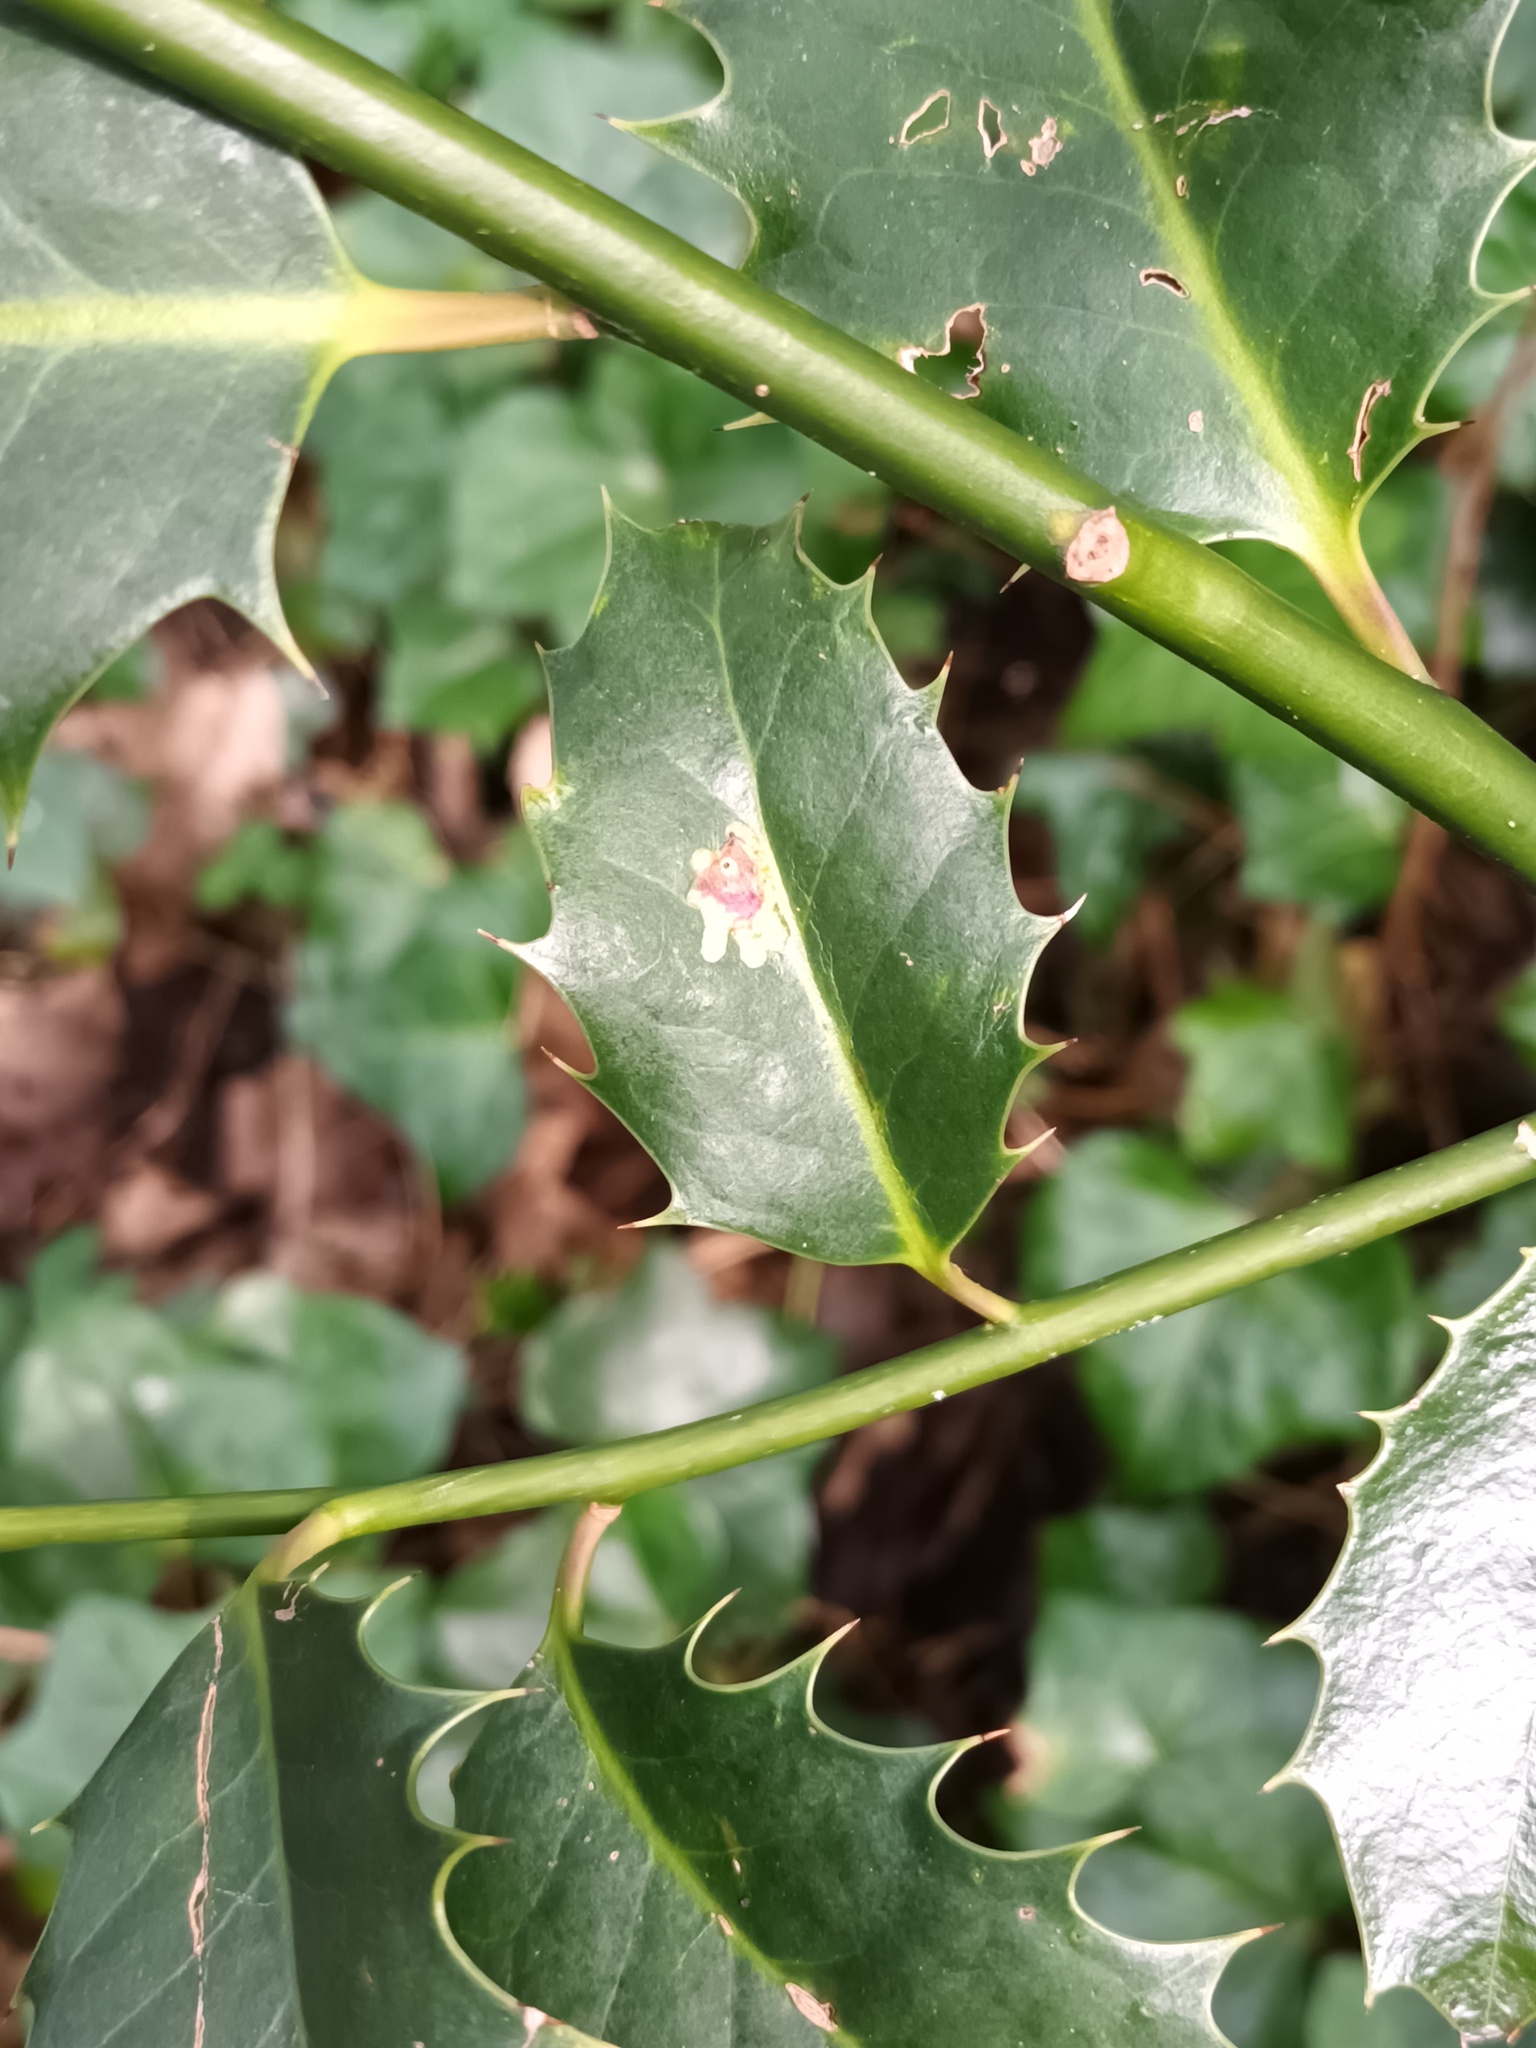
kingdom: Animalia
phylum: Arthropoda
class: Insecta
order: Diptera
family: Agromyzidae
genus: Phytomyza
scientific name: Phytomyza ilicis
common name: Holly leafminer
